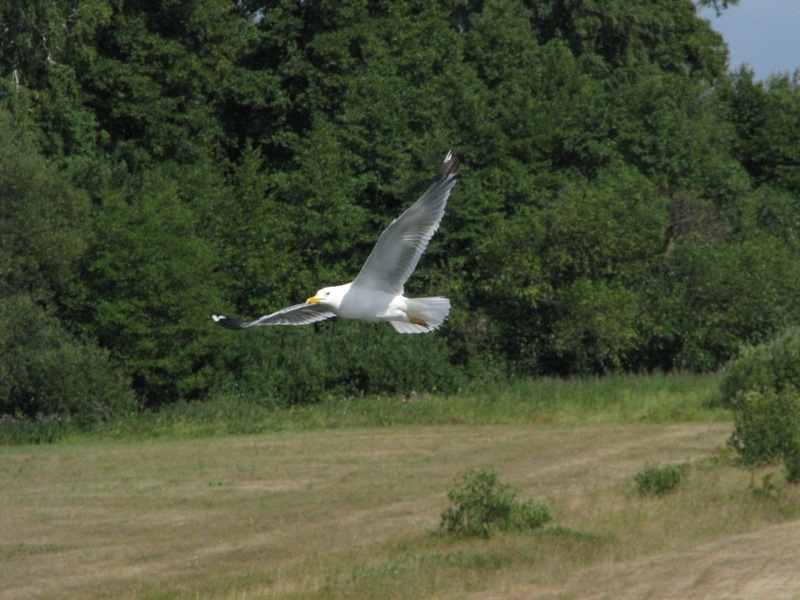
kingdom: Animalia
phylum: Chordata
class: Aves
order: Charadriiformes
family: Laridae
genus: Larus
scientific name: Larus cachinnans
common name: Caspian gull
